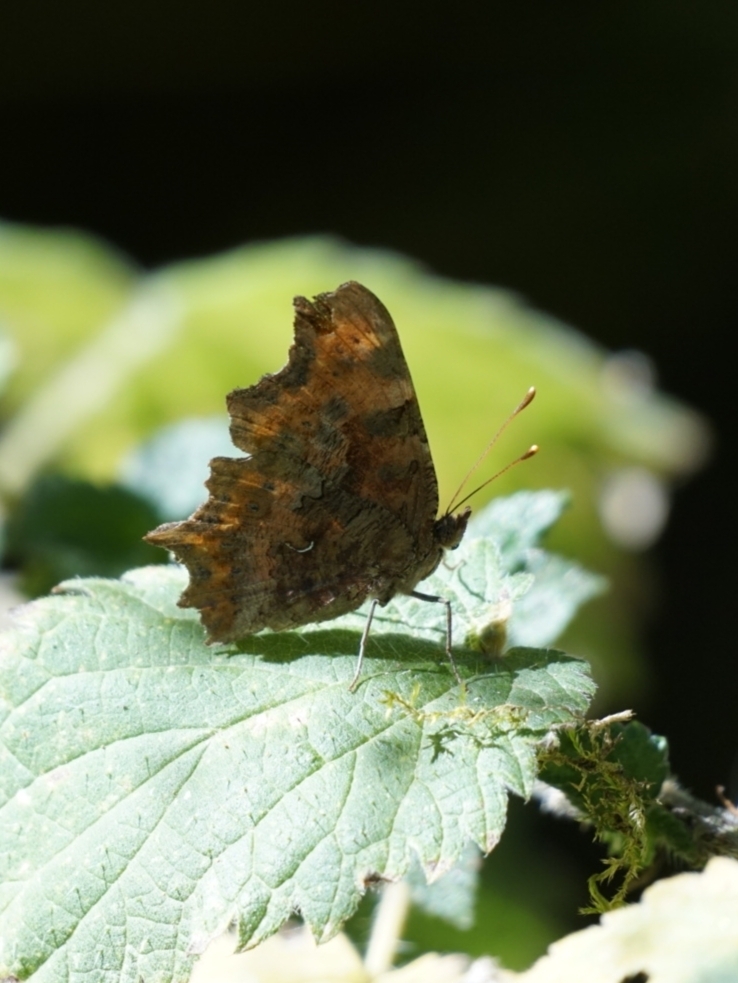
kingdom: Animalia
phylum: Arthropoda
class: Insecta
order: Lepidoptera
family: Nymphalidae
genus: Polygonia
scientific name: Polygonia c-album
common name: Comma
